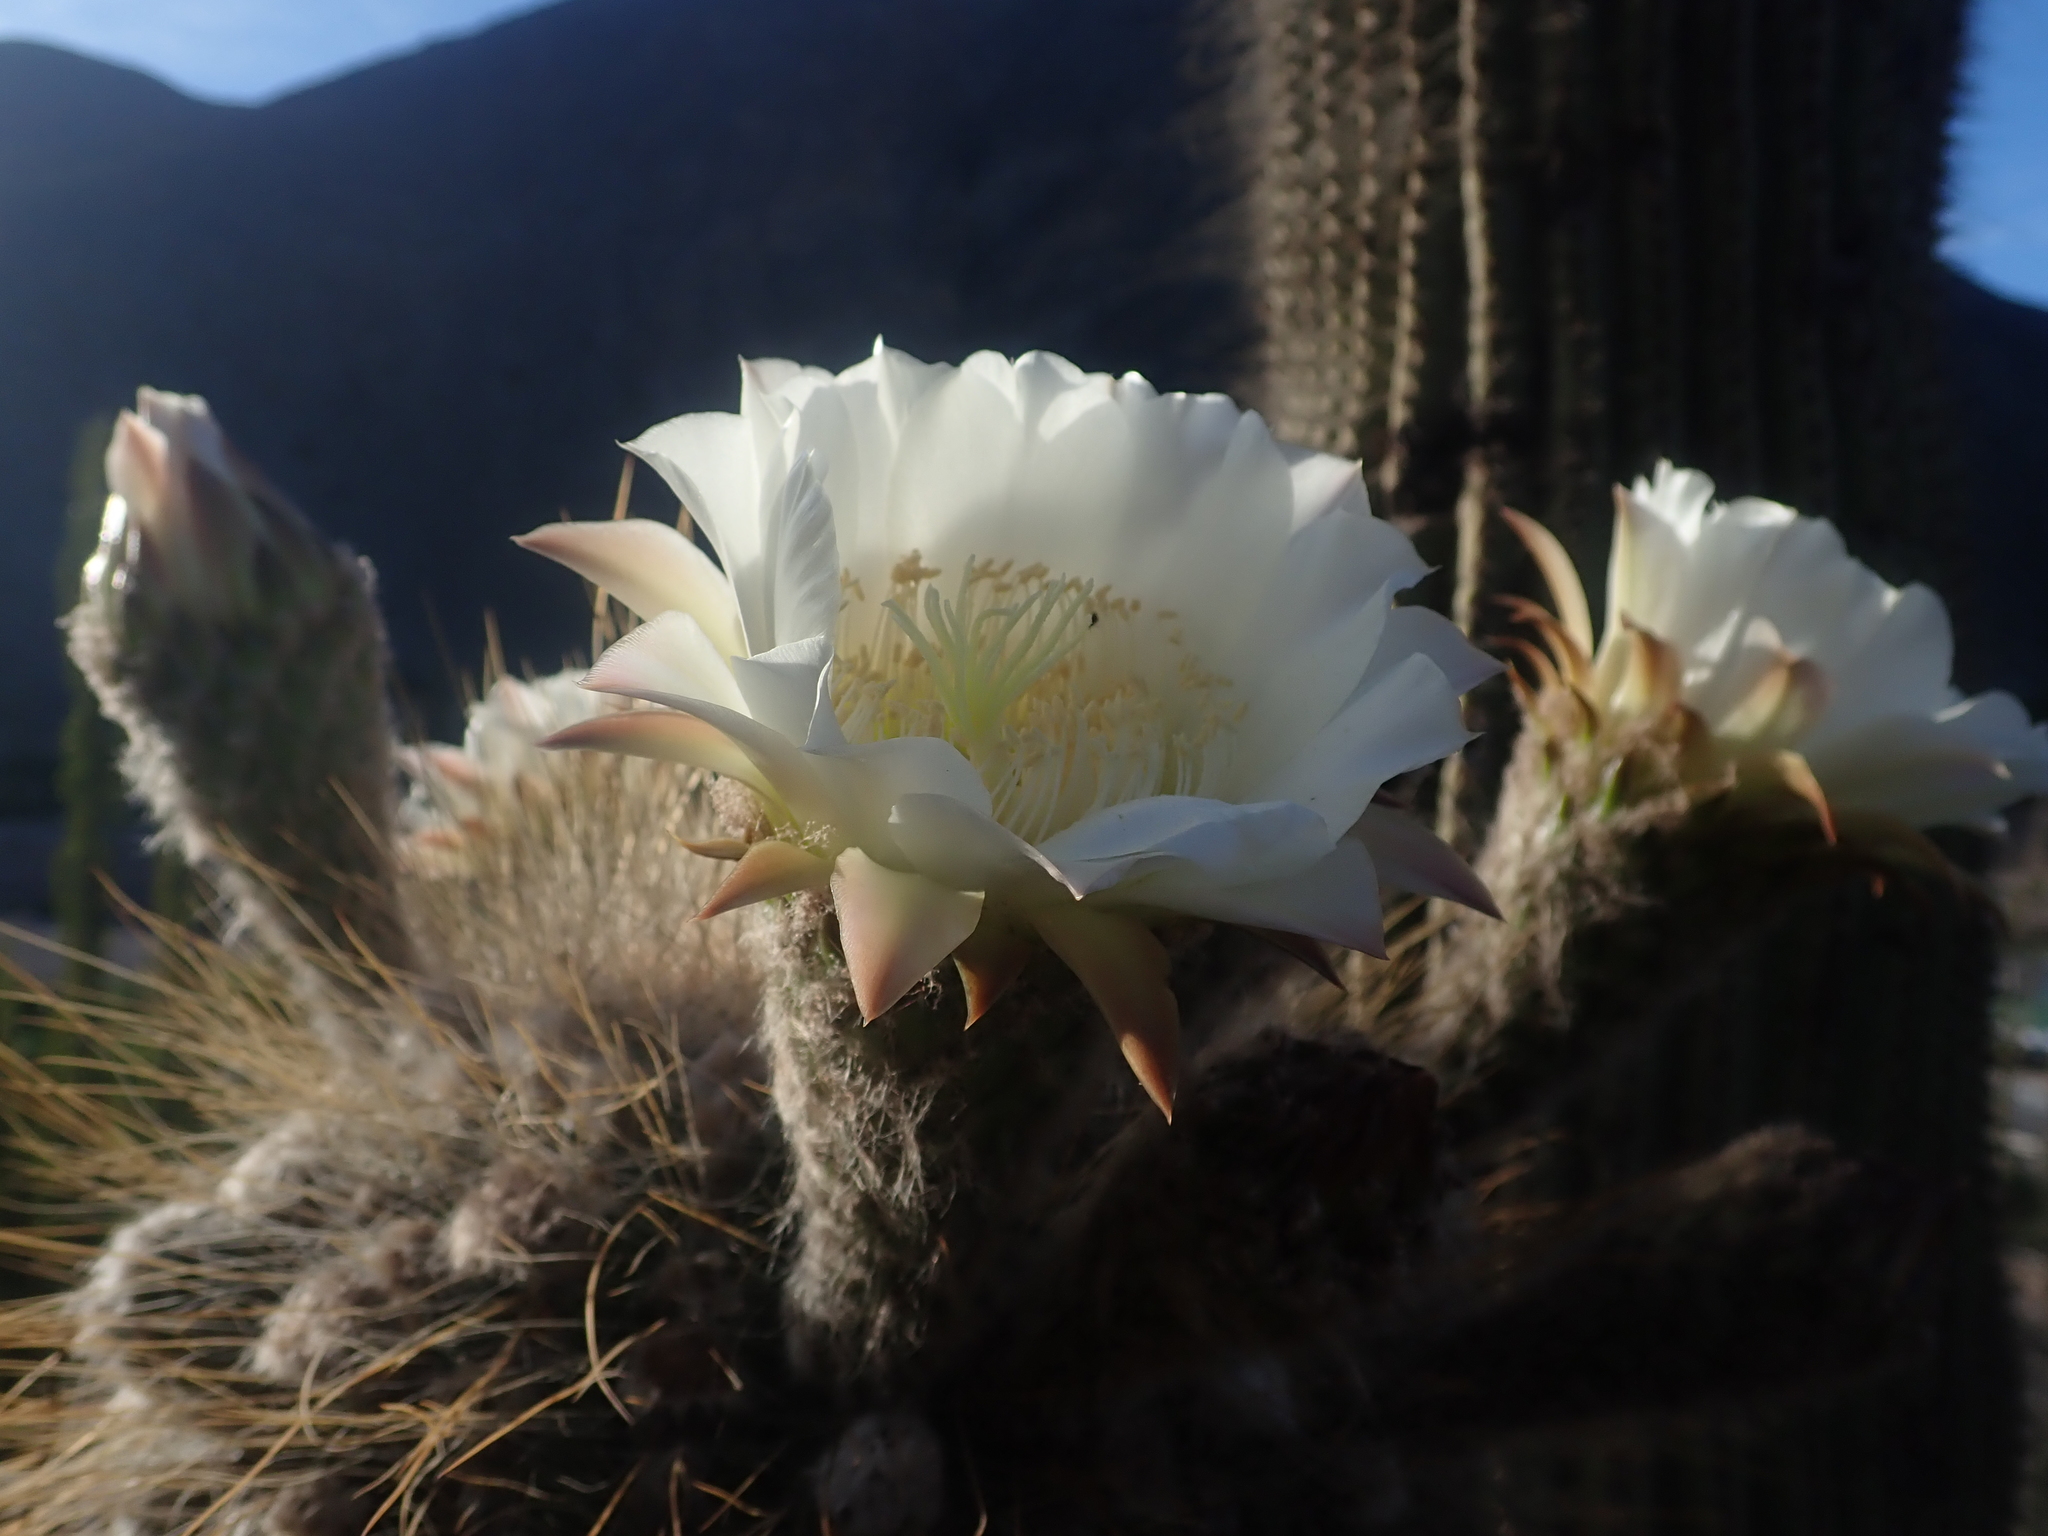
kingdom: Plantae
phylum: Tracheophyta
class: Magnoliopsida
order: Caryophyllales
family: Cactaceae
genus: Leucostele
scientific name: Leucostele atacamensis
